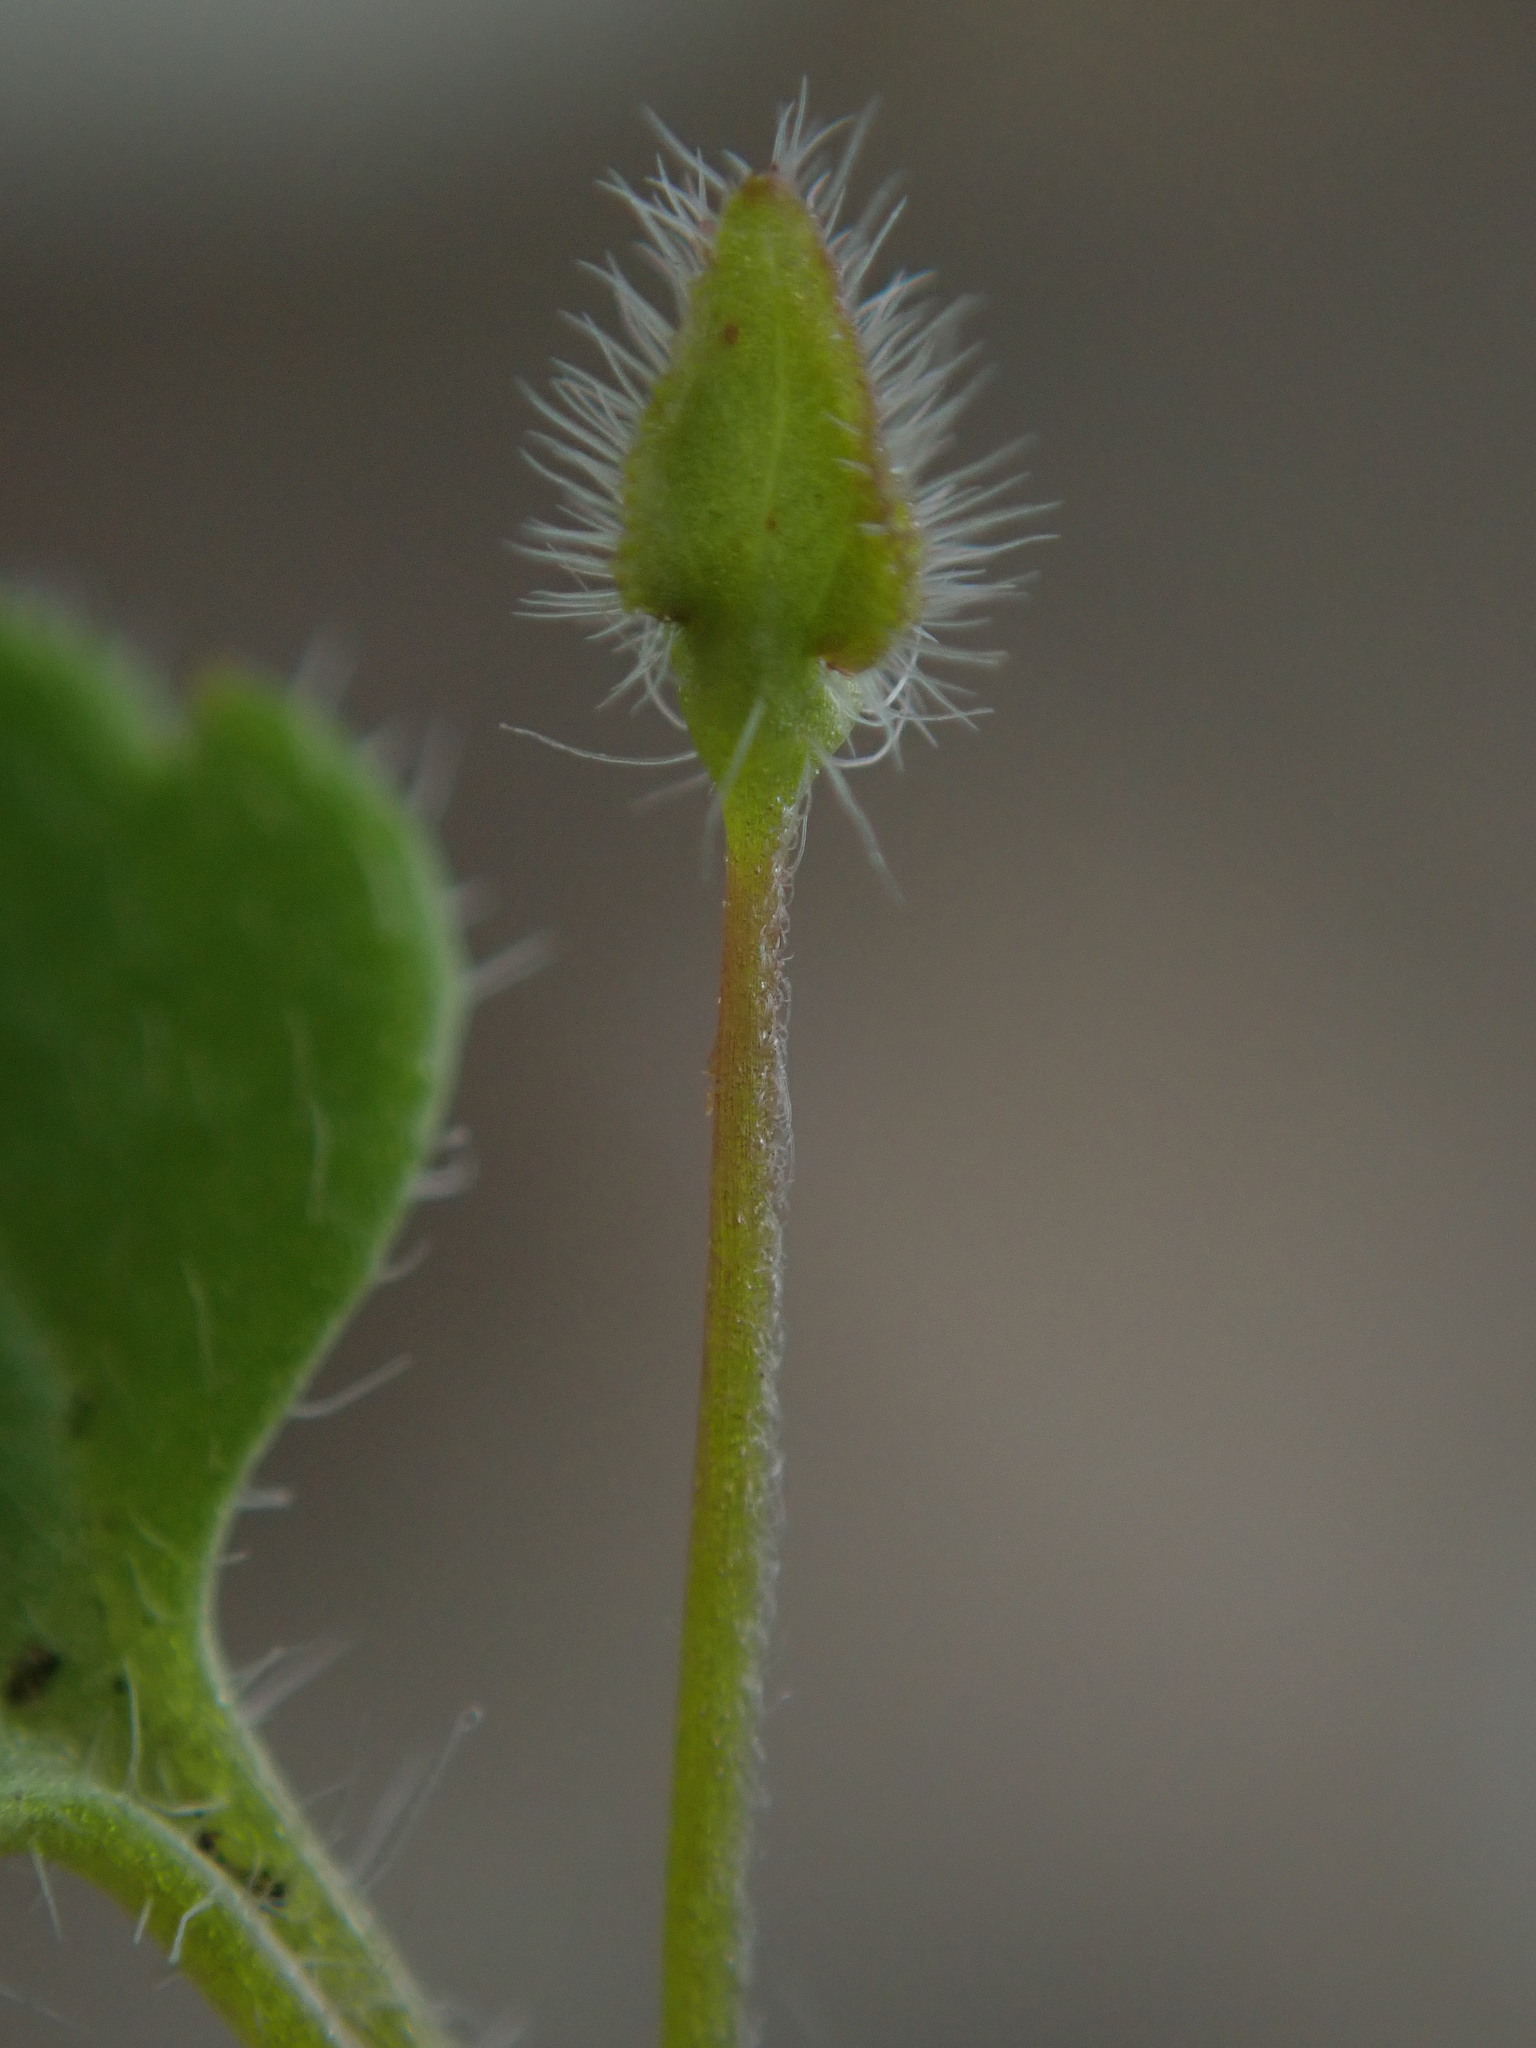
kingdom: Plantae
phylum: Tracheophyta
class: Magnoliopsida
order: Lamiales
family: Plantaginaceae
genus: Veronica
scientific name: Veronica hederifolia
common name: Ivy-leaved speedwell
